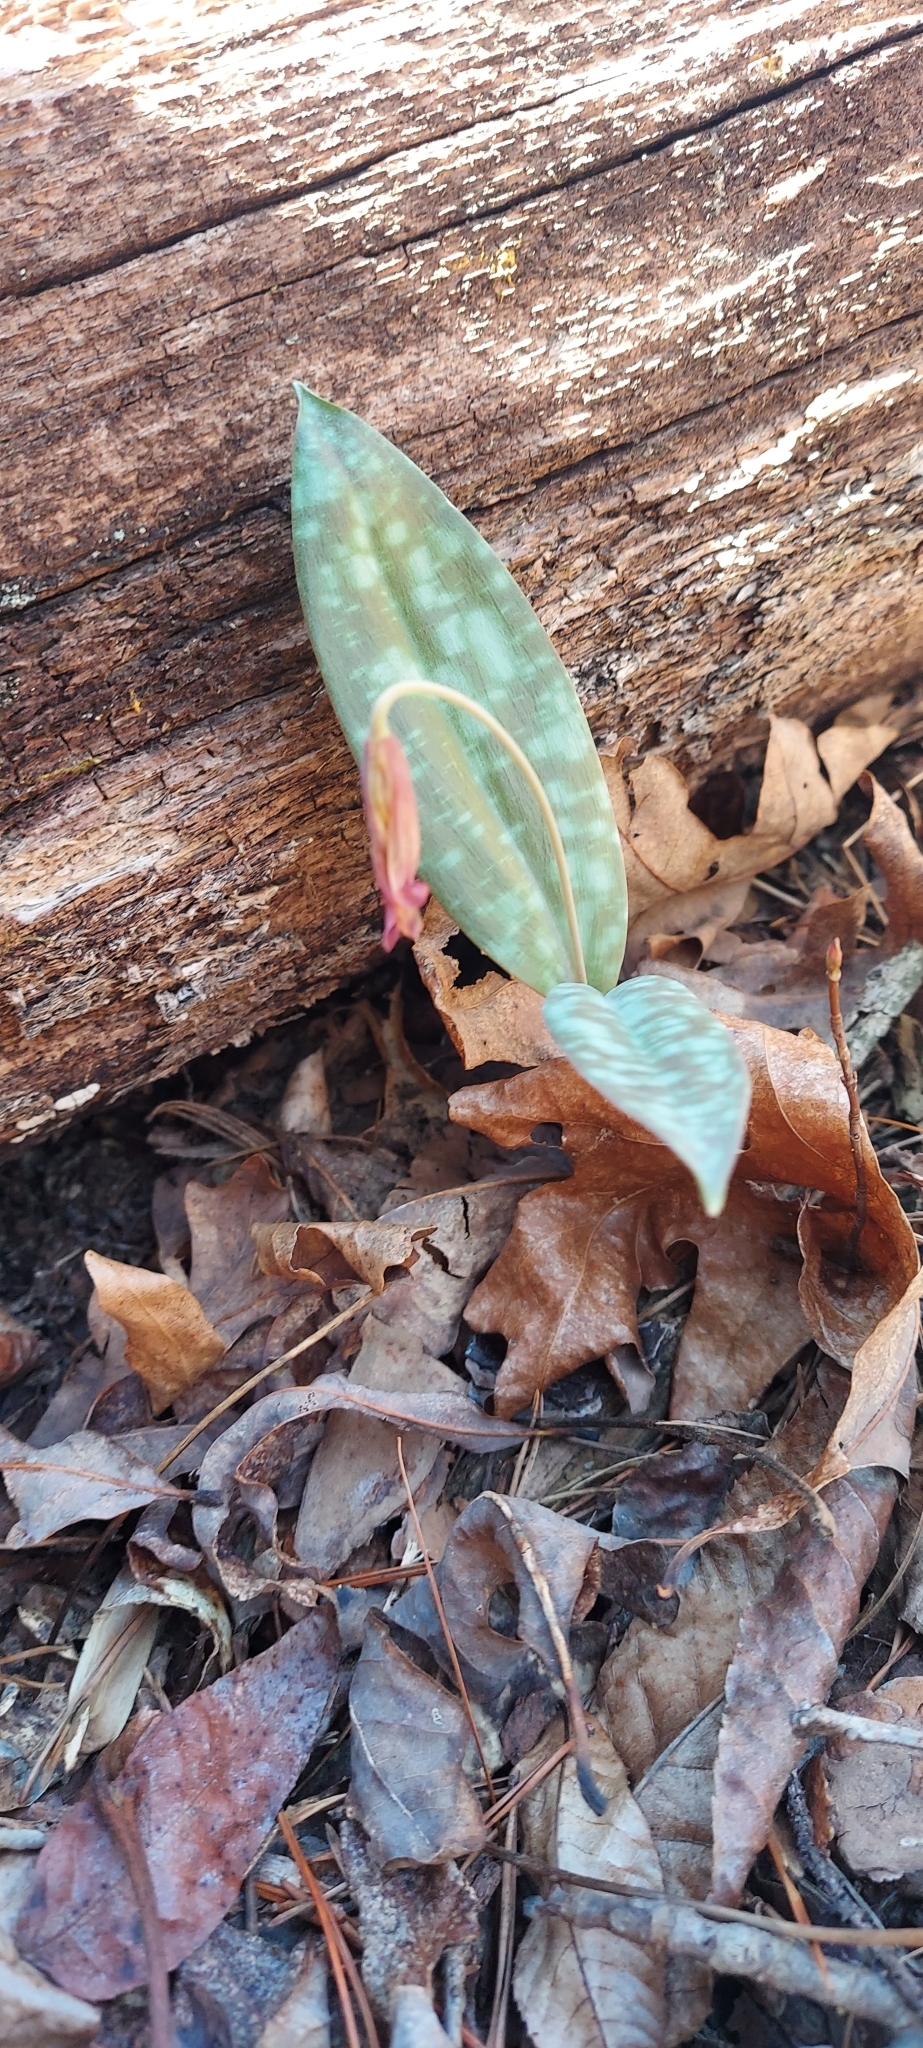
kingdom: Plantae
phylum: Tracheophyta
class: Liliopsida
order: Liliales
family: Liliaceae
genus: Erythronium
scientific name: Erythronium americanum
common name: Yellow adder's-tongue
